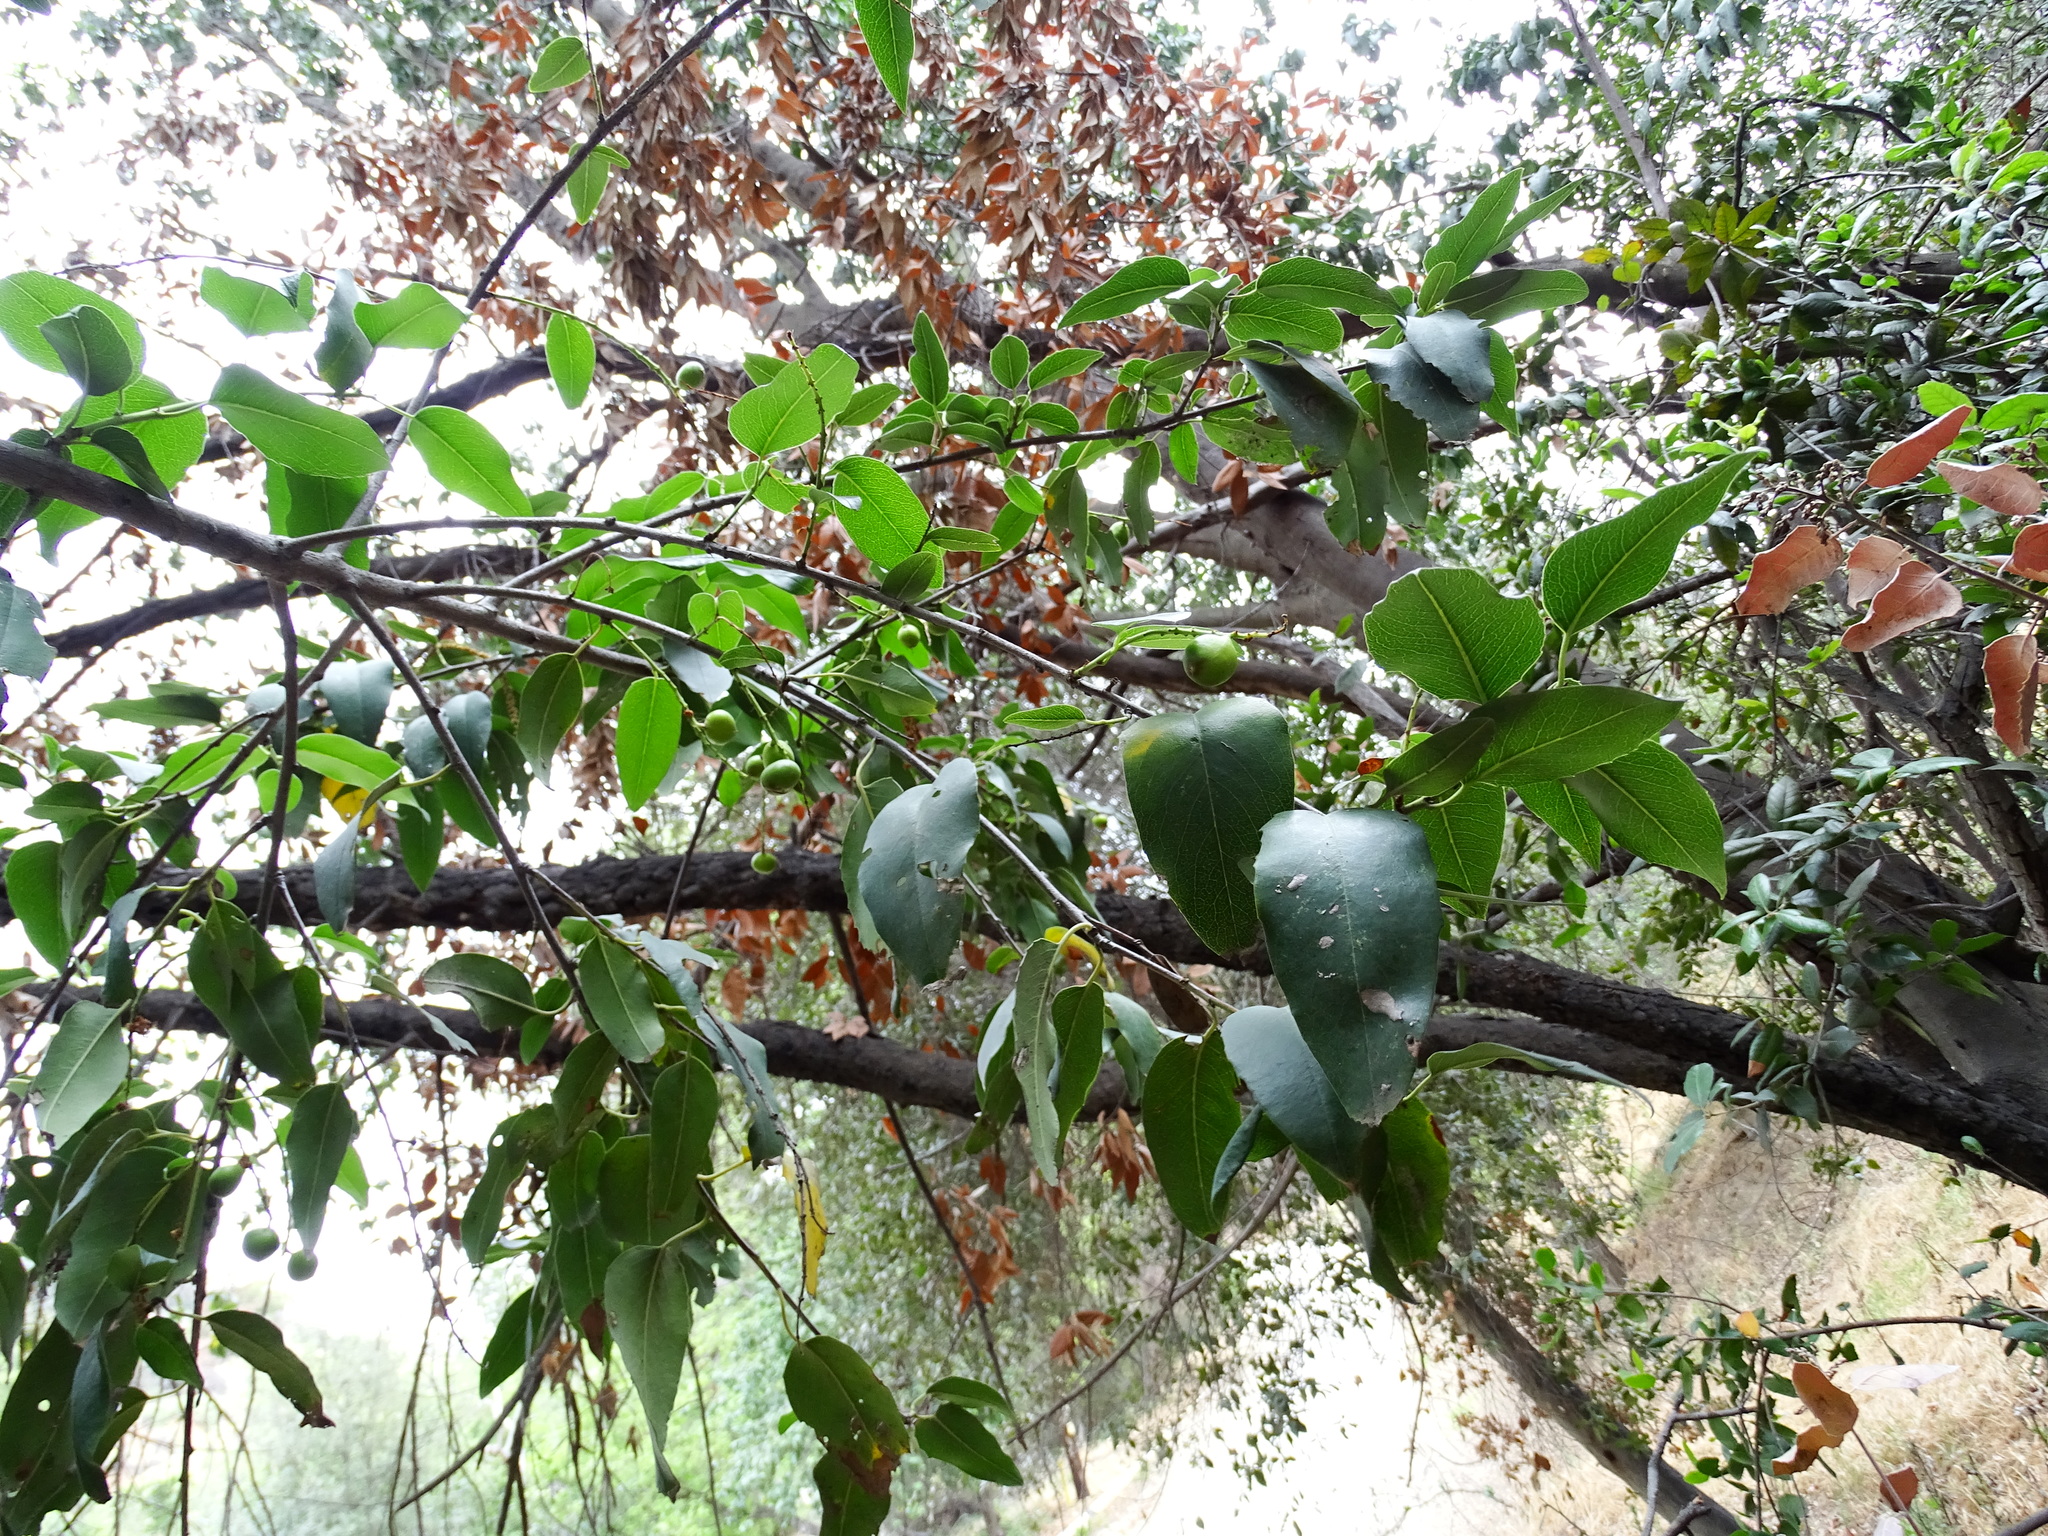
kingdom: Plantae
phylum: Tracheophyta
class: Magnoliopsida
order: Rosales
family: Rosaceae
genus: Prunus
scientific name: Prunus ilicifolia
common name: Hollyleaf cherry
